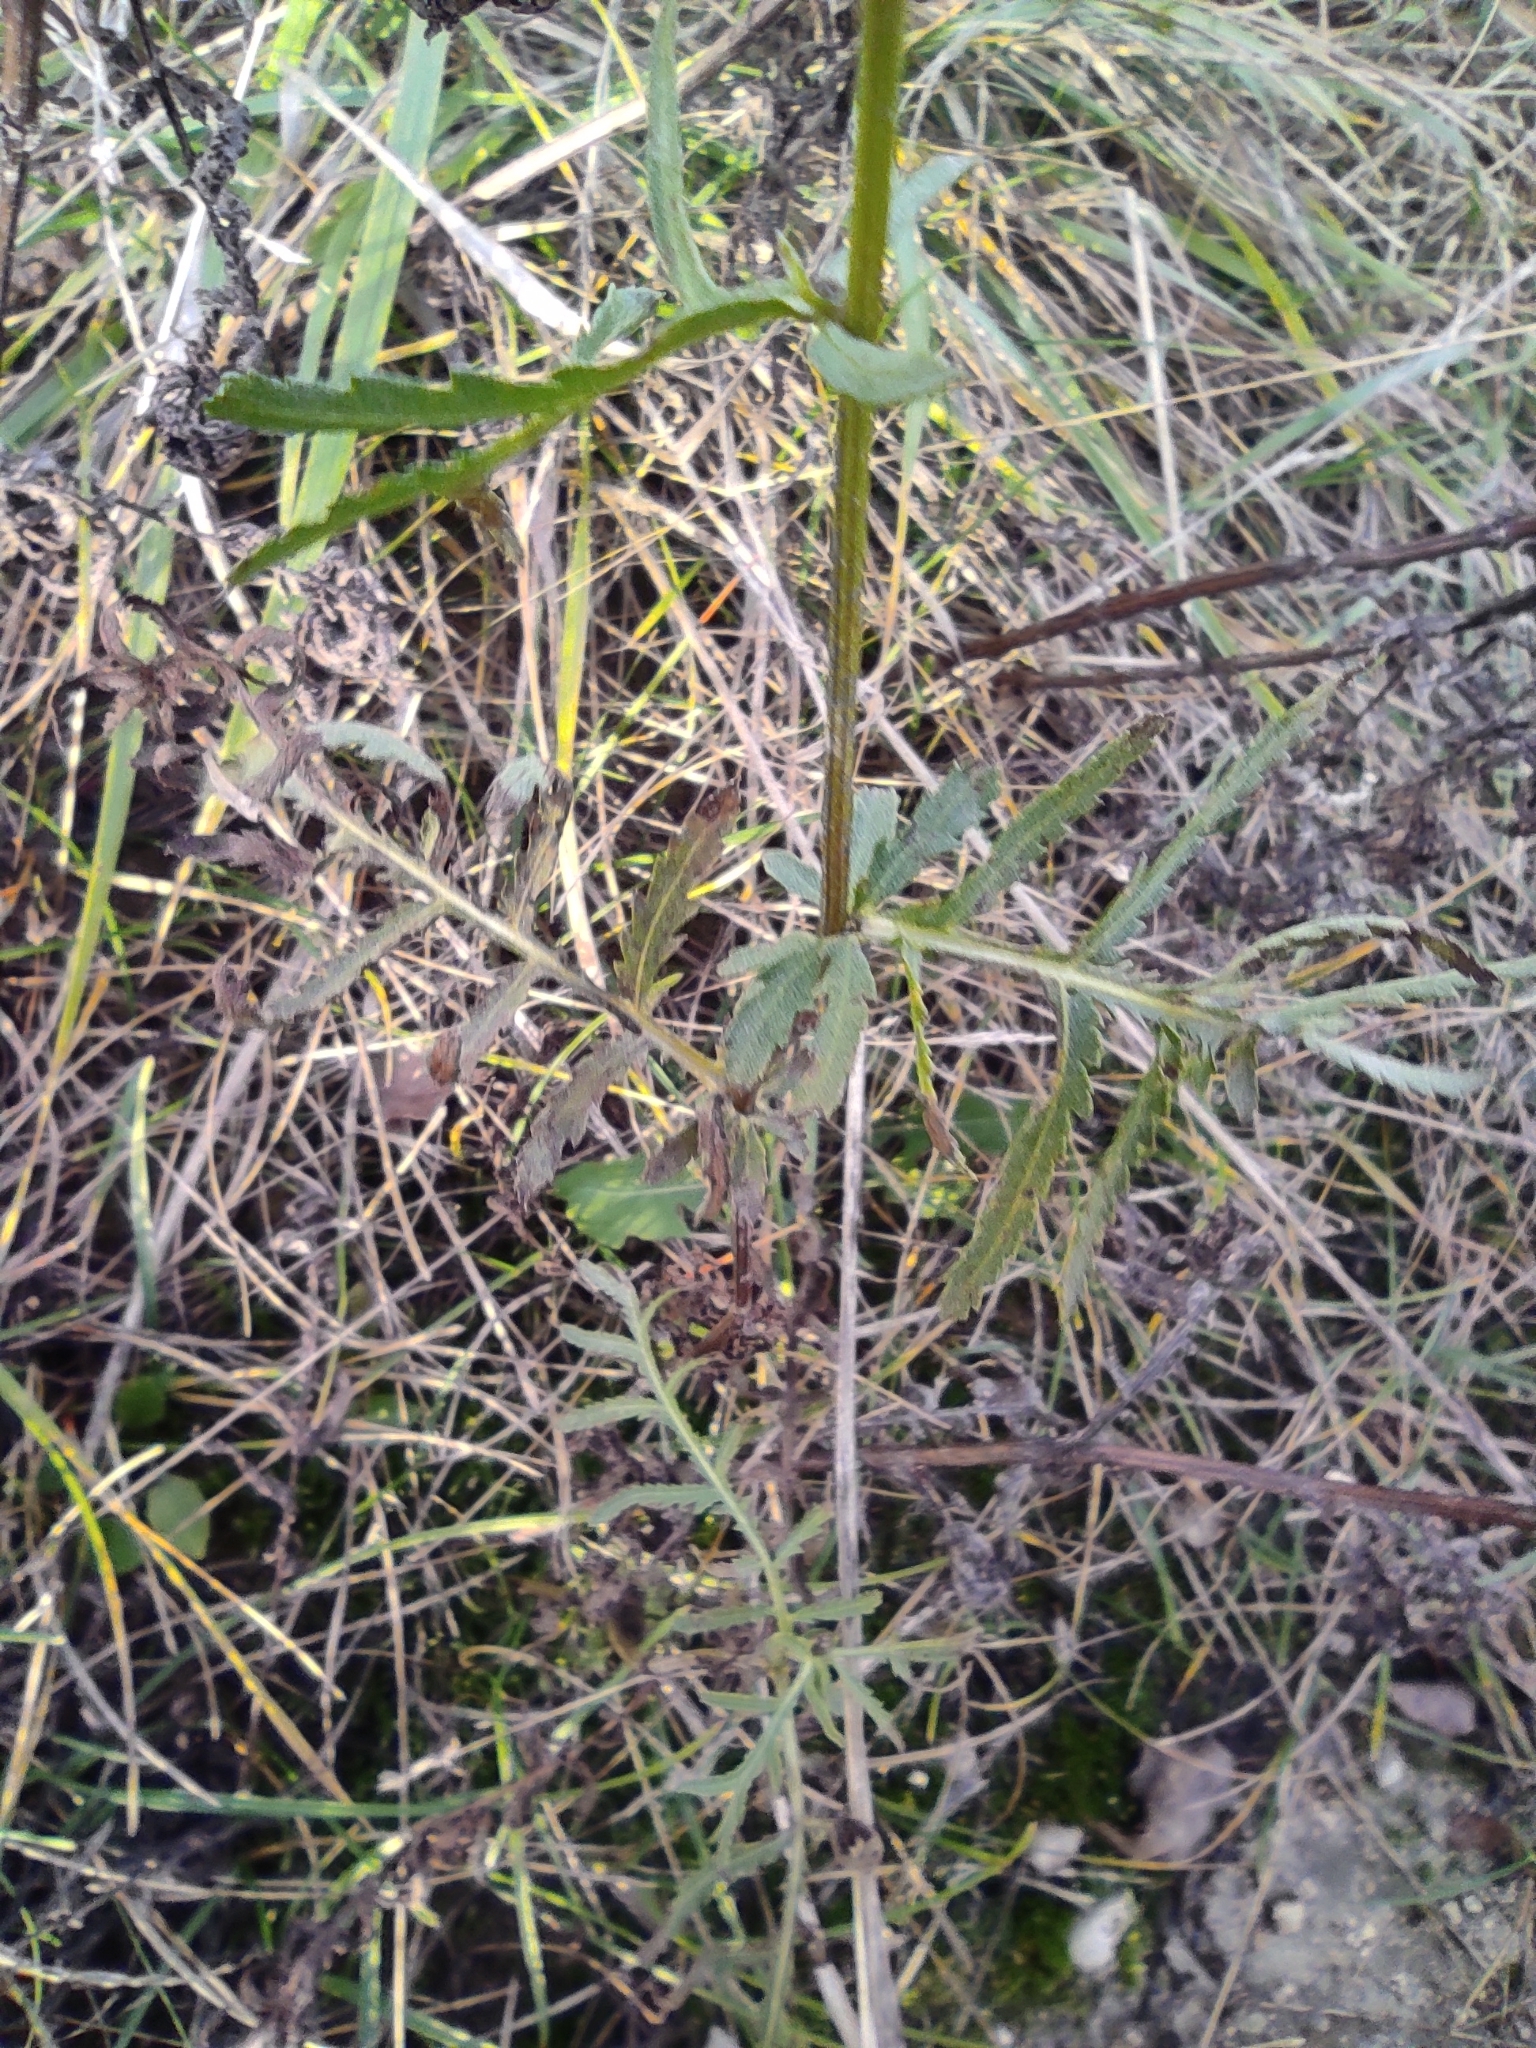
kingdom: Plantae
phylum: Tracheophyta
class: Magnoliopsida
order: Asterales
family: Asteraceae
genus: Tanacetum
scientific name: Tanacetum vulgare
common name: Common tansy
